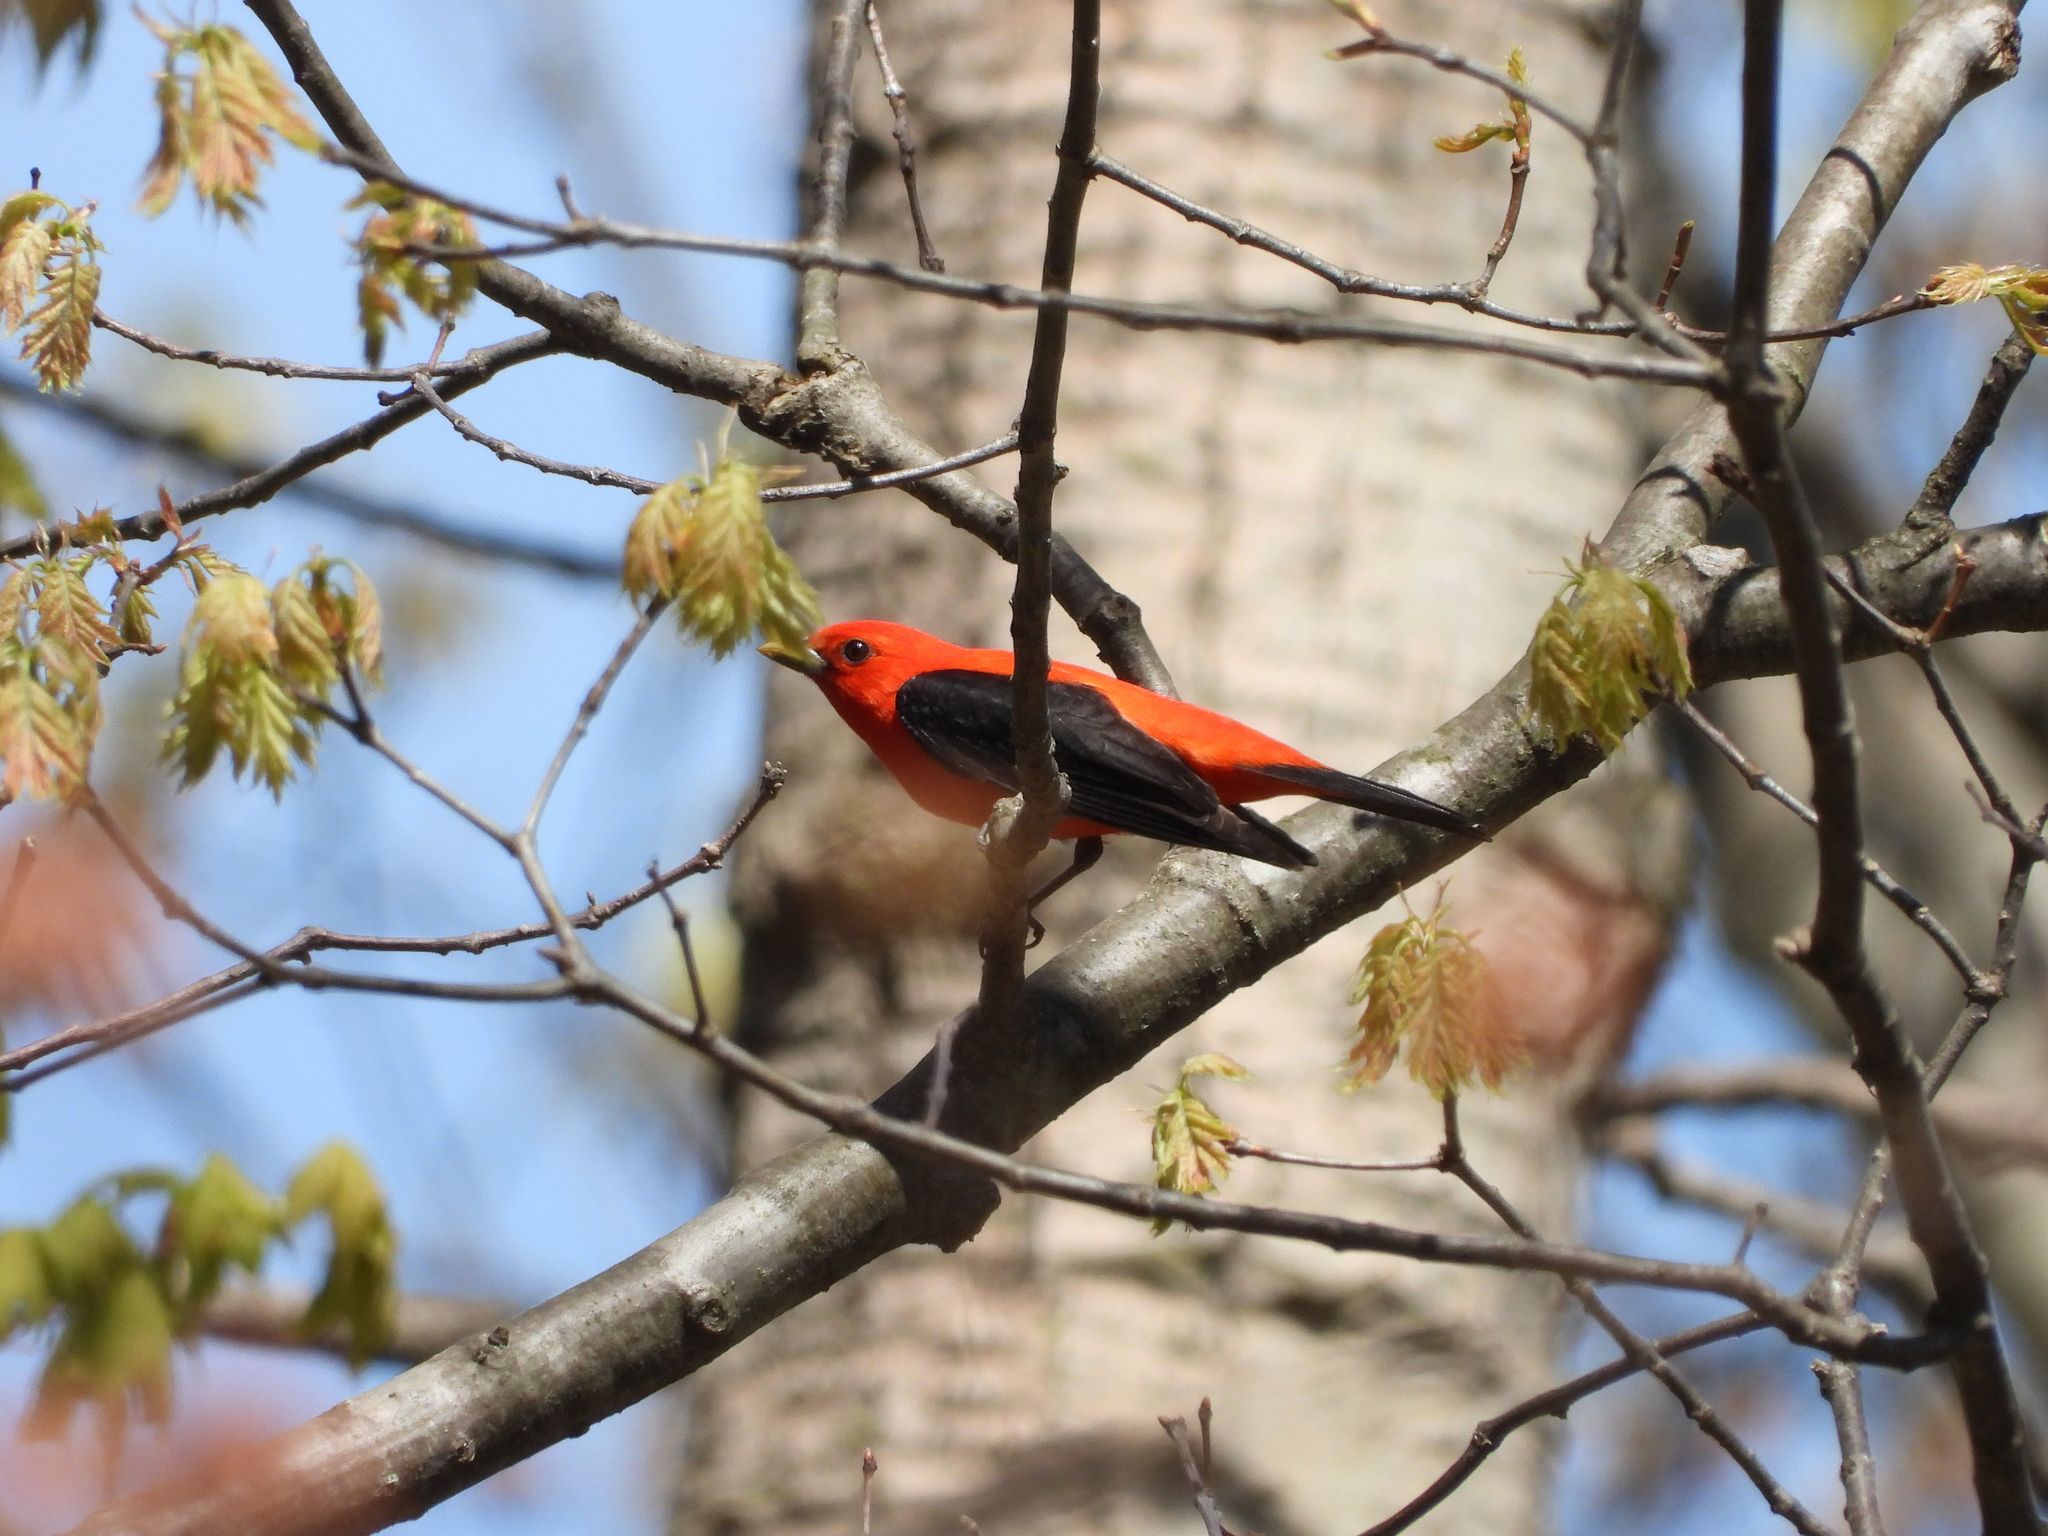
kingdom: Animalia
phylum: Chordata
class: Aves
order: Passeriformes
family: Cardinalidae
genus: Piranga
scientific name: Piranga olivacea
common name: Scarlet tanager
